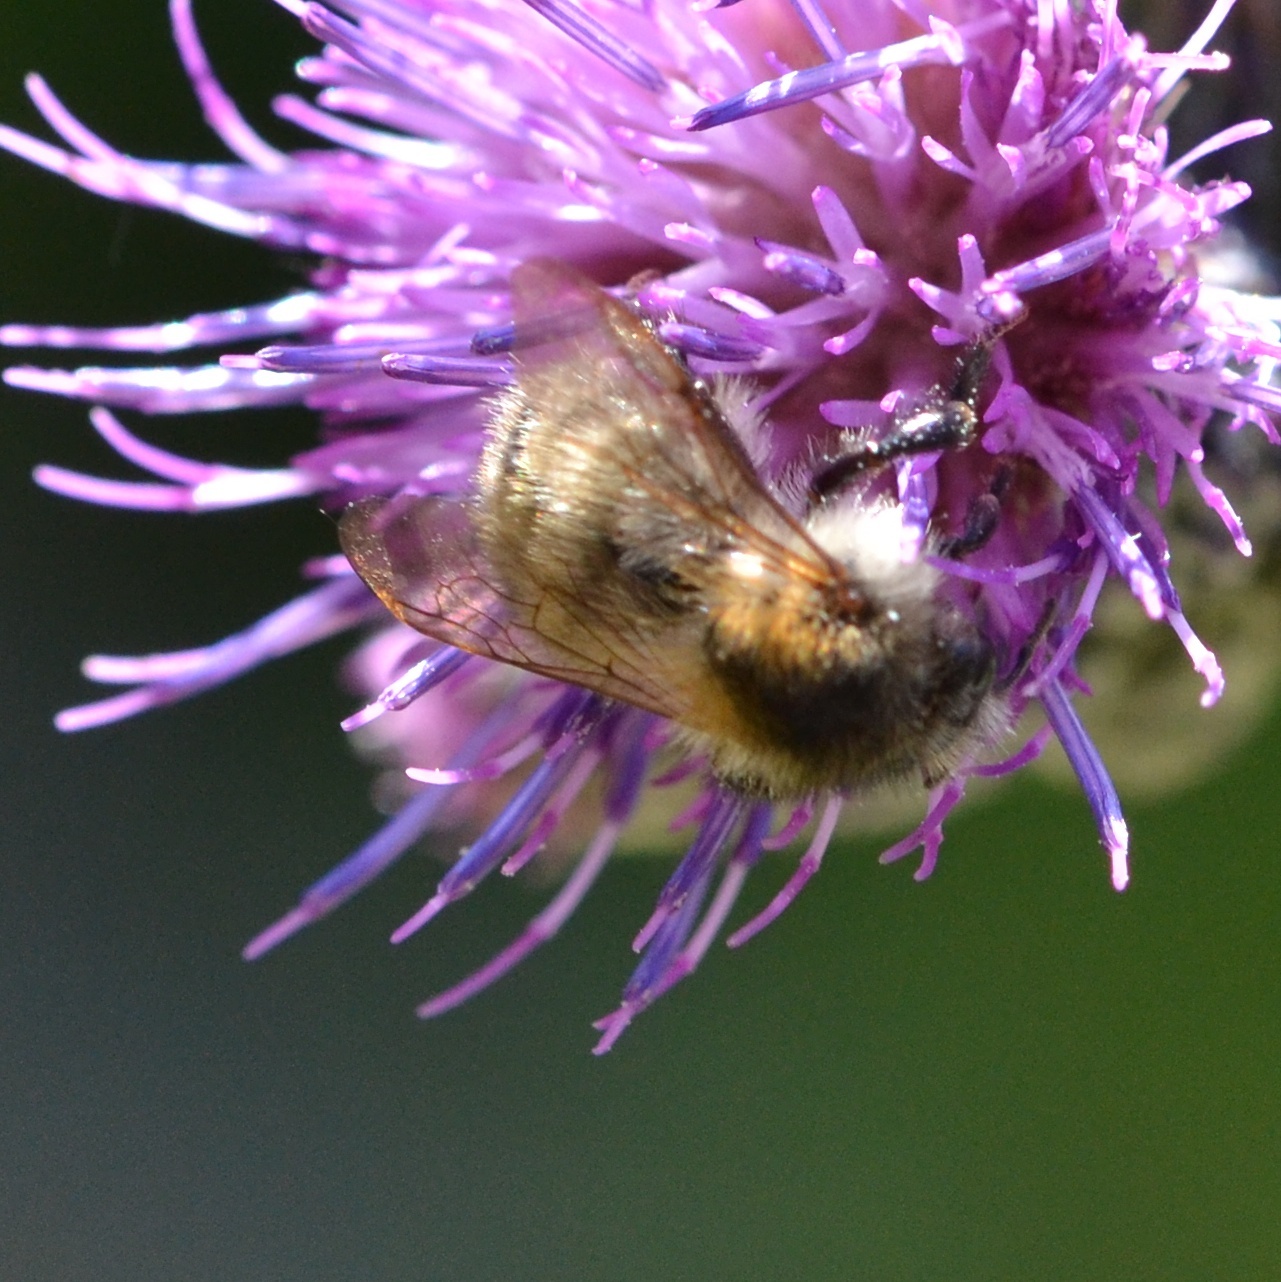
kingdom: Animalia
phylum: Arthropoda
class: Insecta
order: Hymenoptera
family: Apidae
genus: Bombus
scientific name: Bombus pascuorum
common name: Common carder bee
